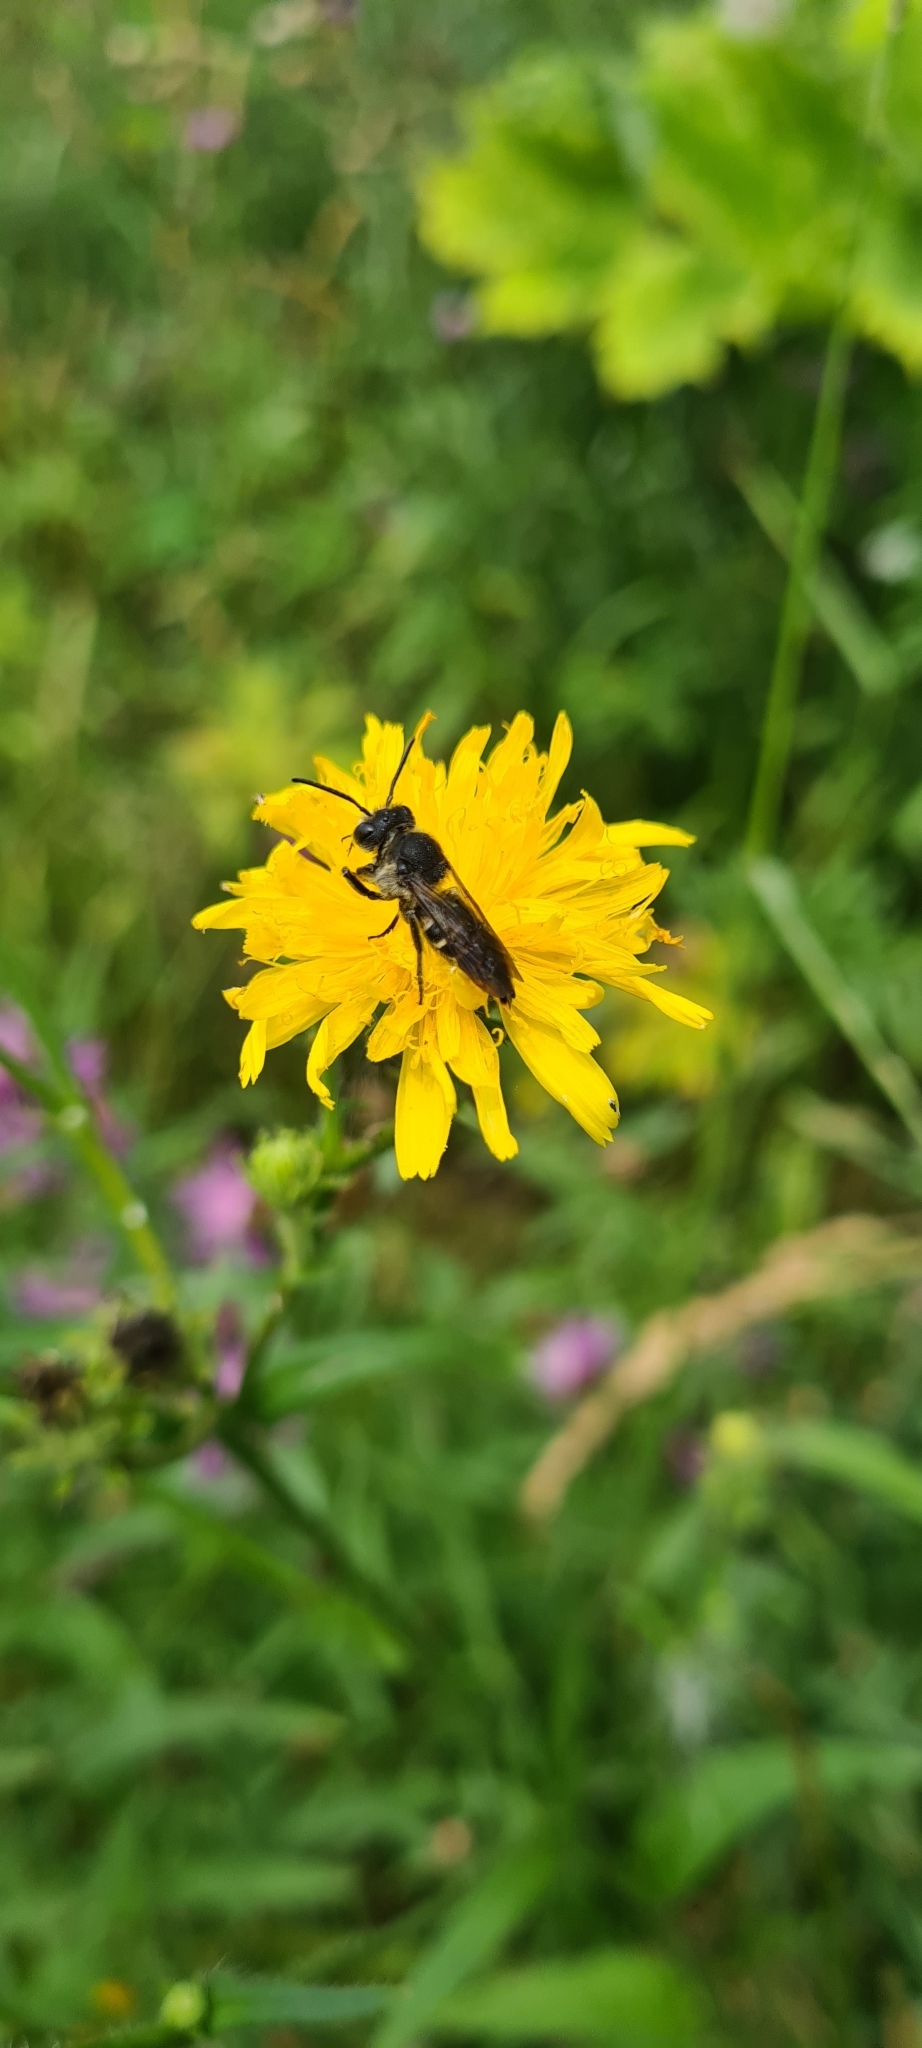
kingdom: Animalia
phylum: Arthropoda
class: Insecta
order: Hymenoptera
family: Megachilidae
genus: Coelioxys
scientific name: Coelioxys alatus
